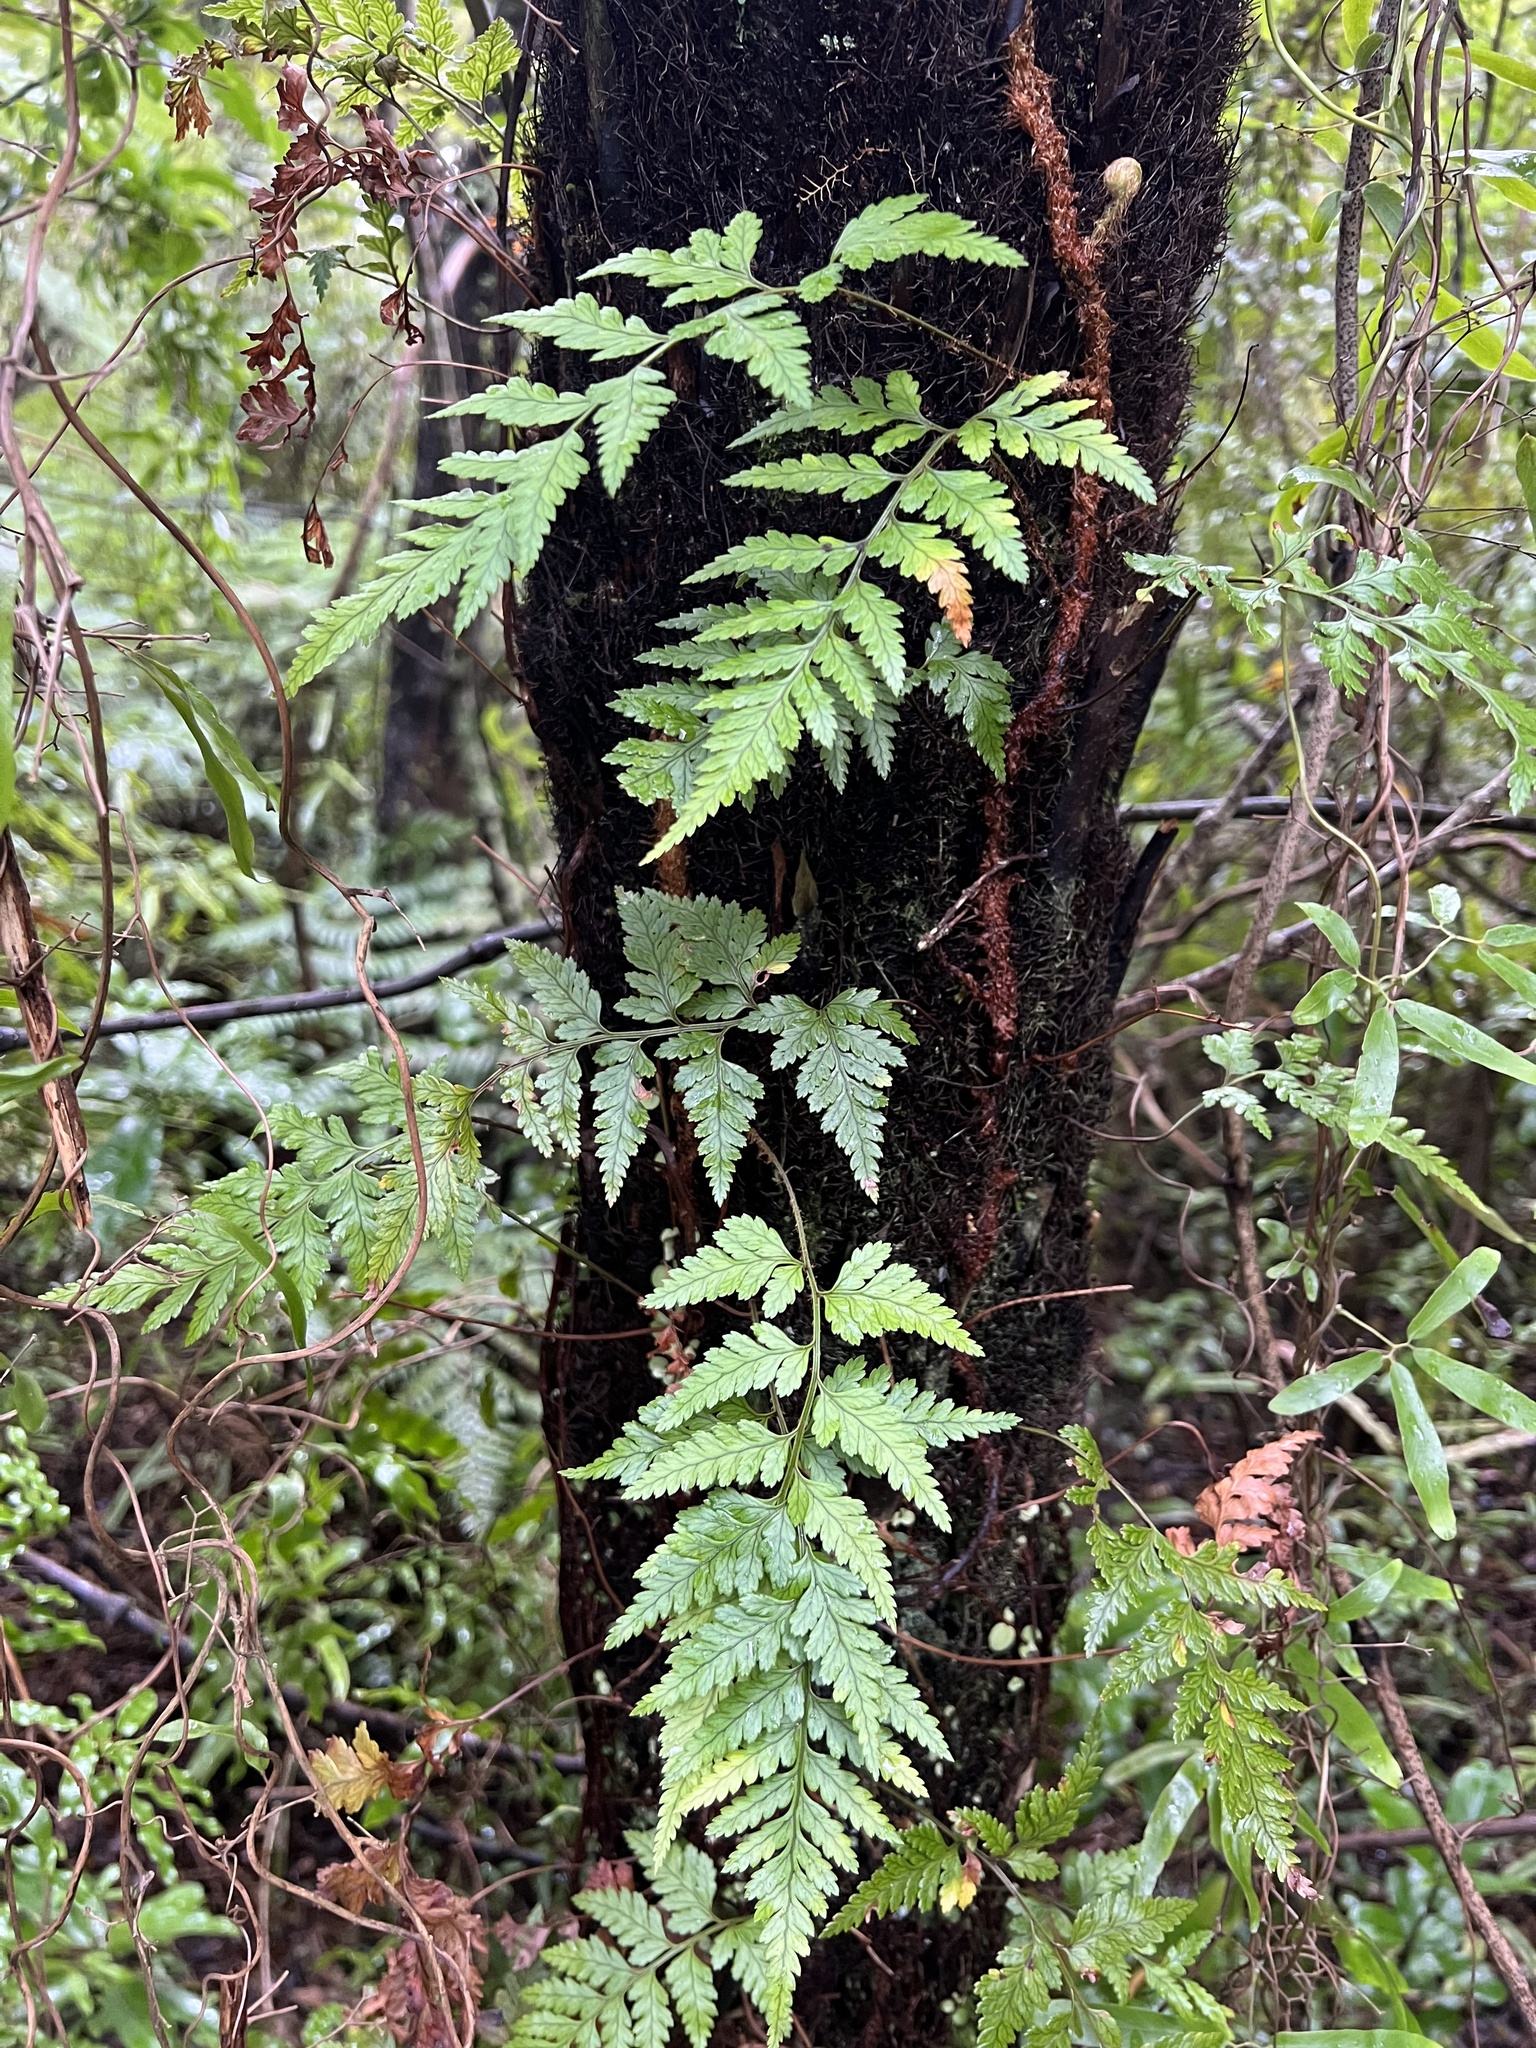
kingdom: Plantae
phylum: Tracheophyta
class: Polypodiopsida
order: Polypodiales
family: Dryopteridaceae
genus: Rumohra
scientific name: Rumohra adiantiformis
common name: Leather fern
